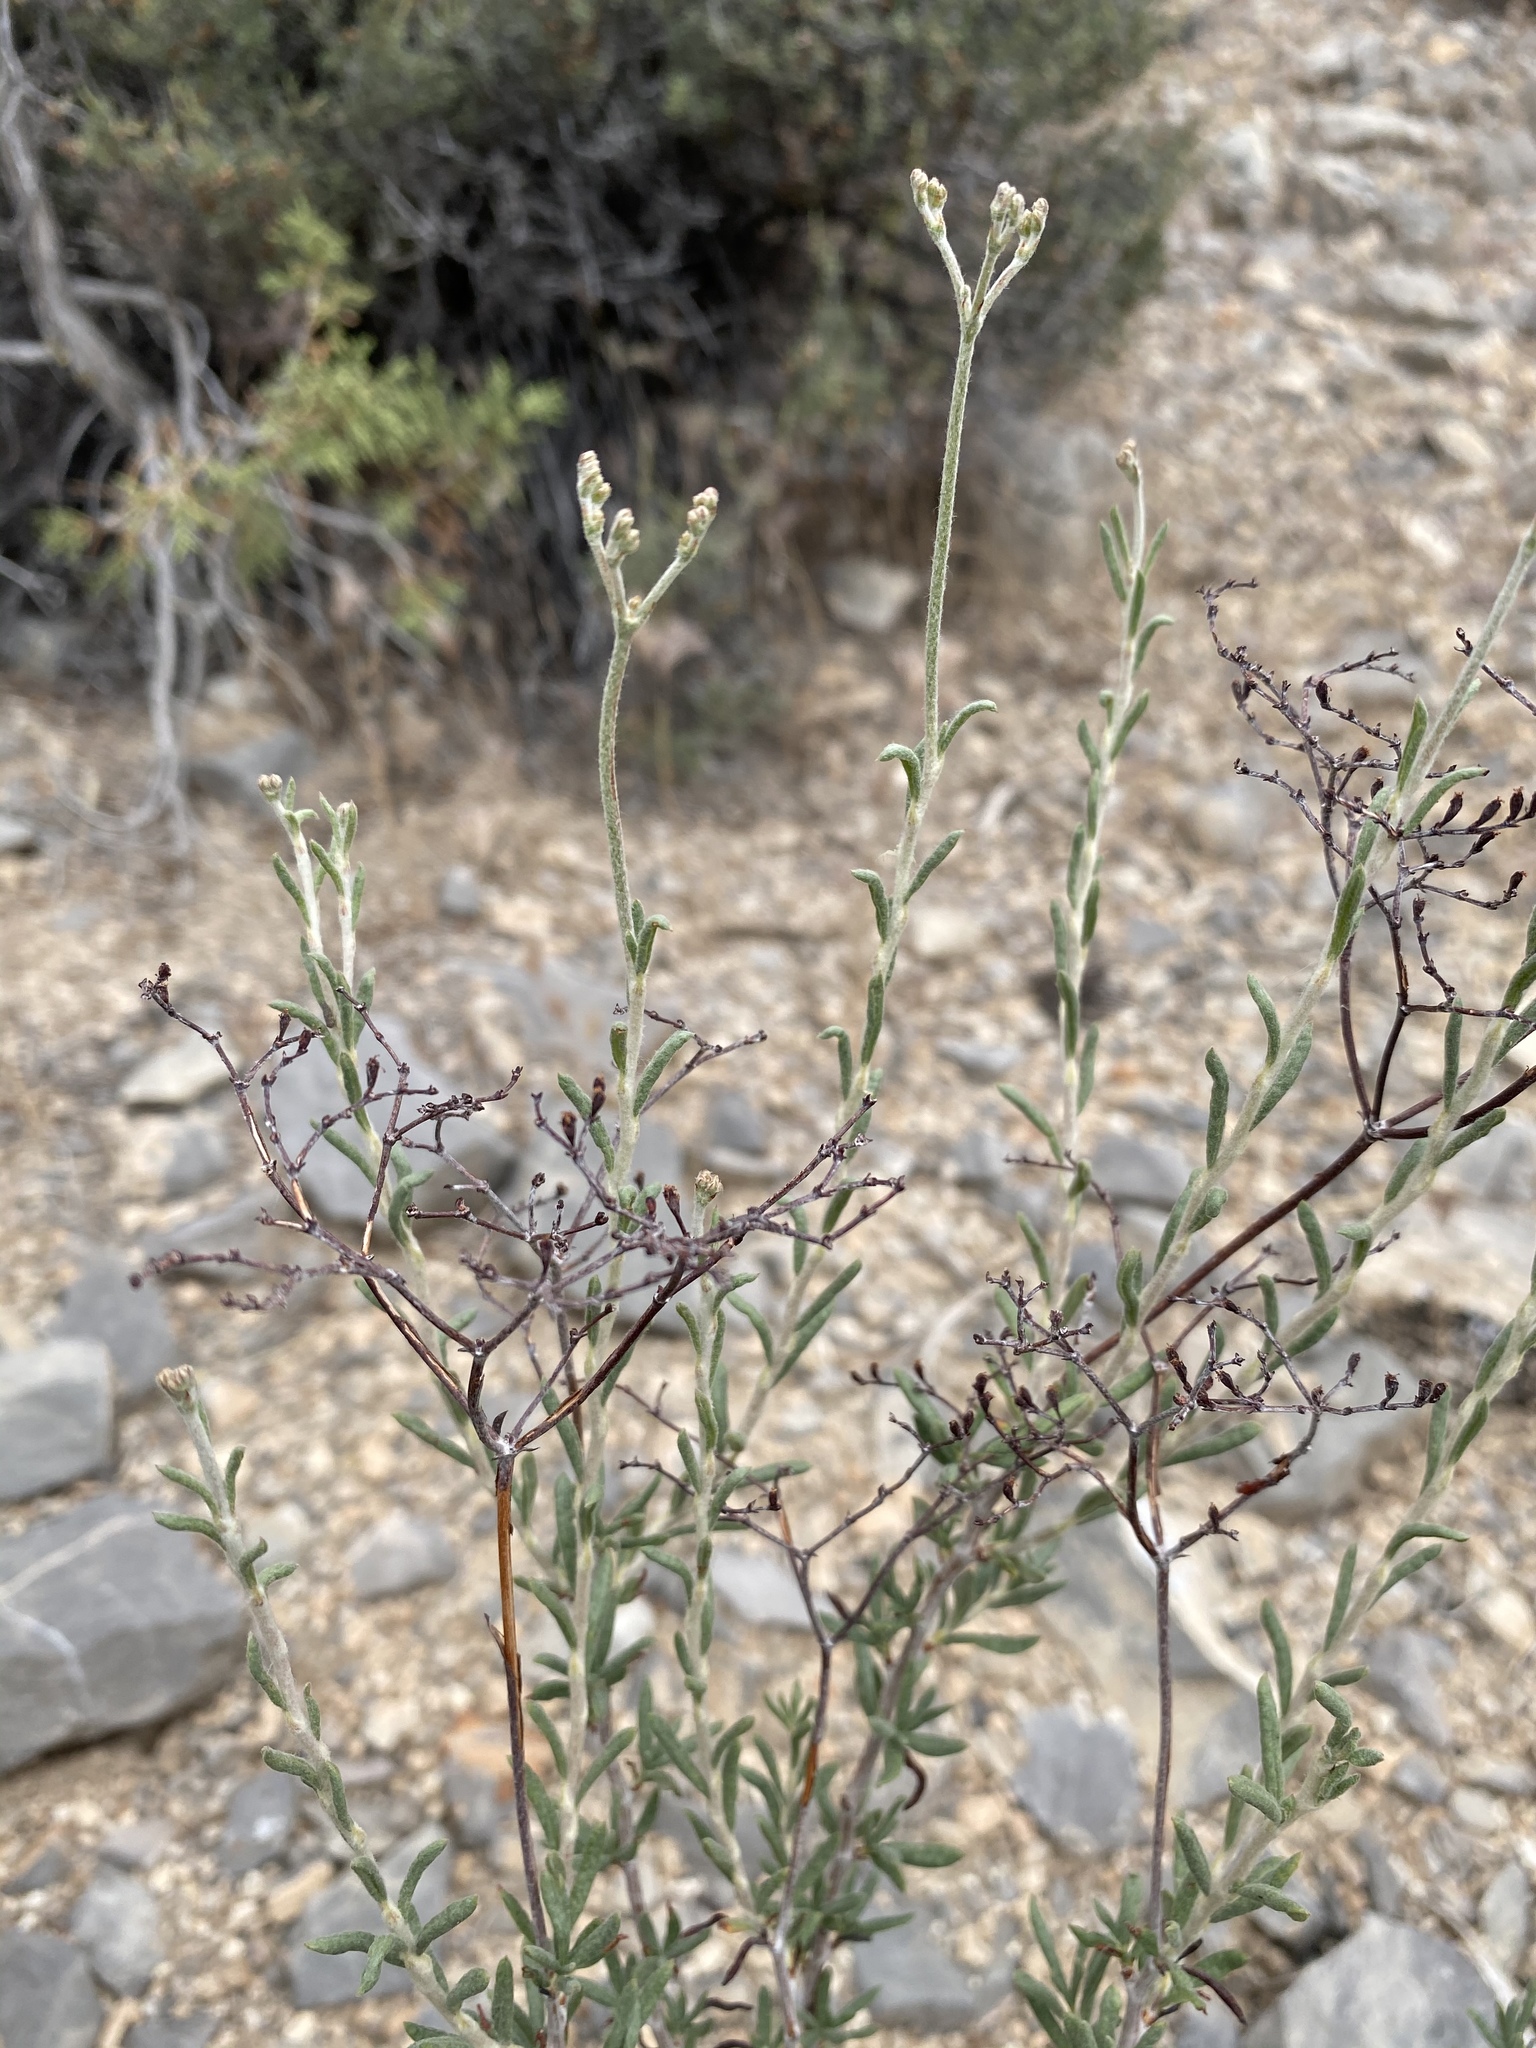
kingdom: Plantae
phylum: Tracheophyta
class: Magnoliopsida
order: Caryophyllales
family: Polygonaceae
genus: Eriogonum
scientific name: Eriogonum microtheca
